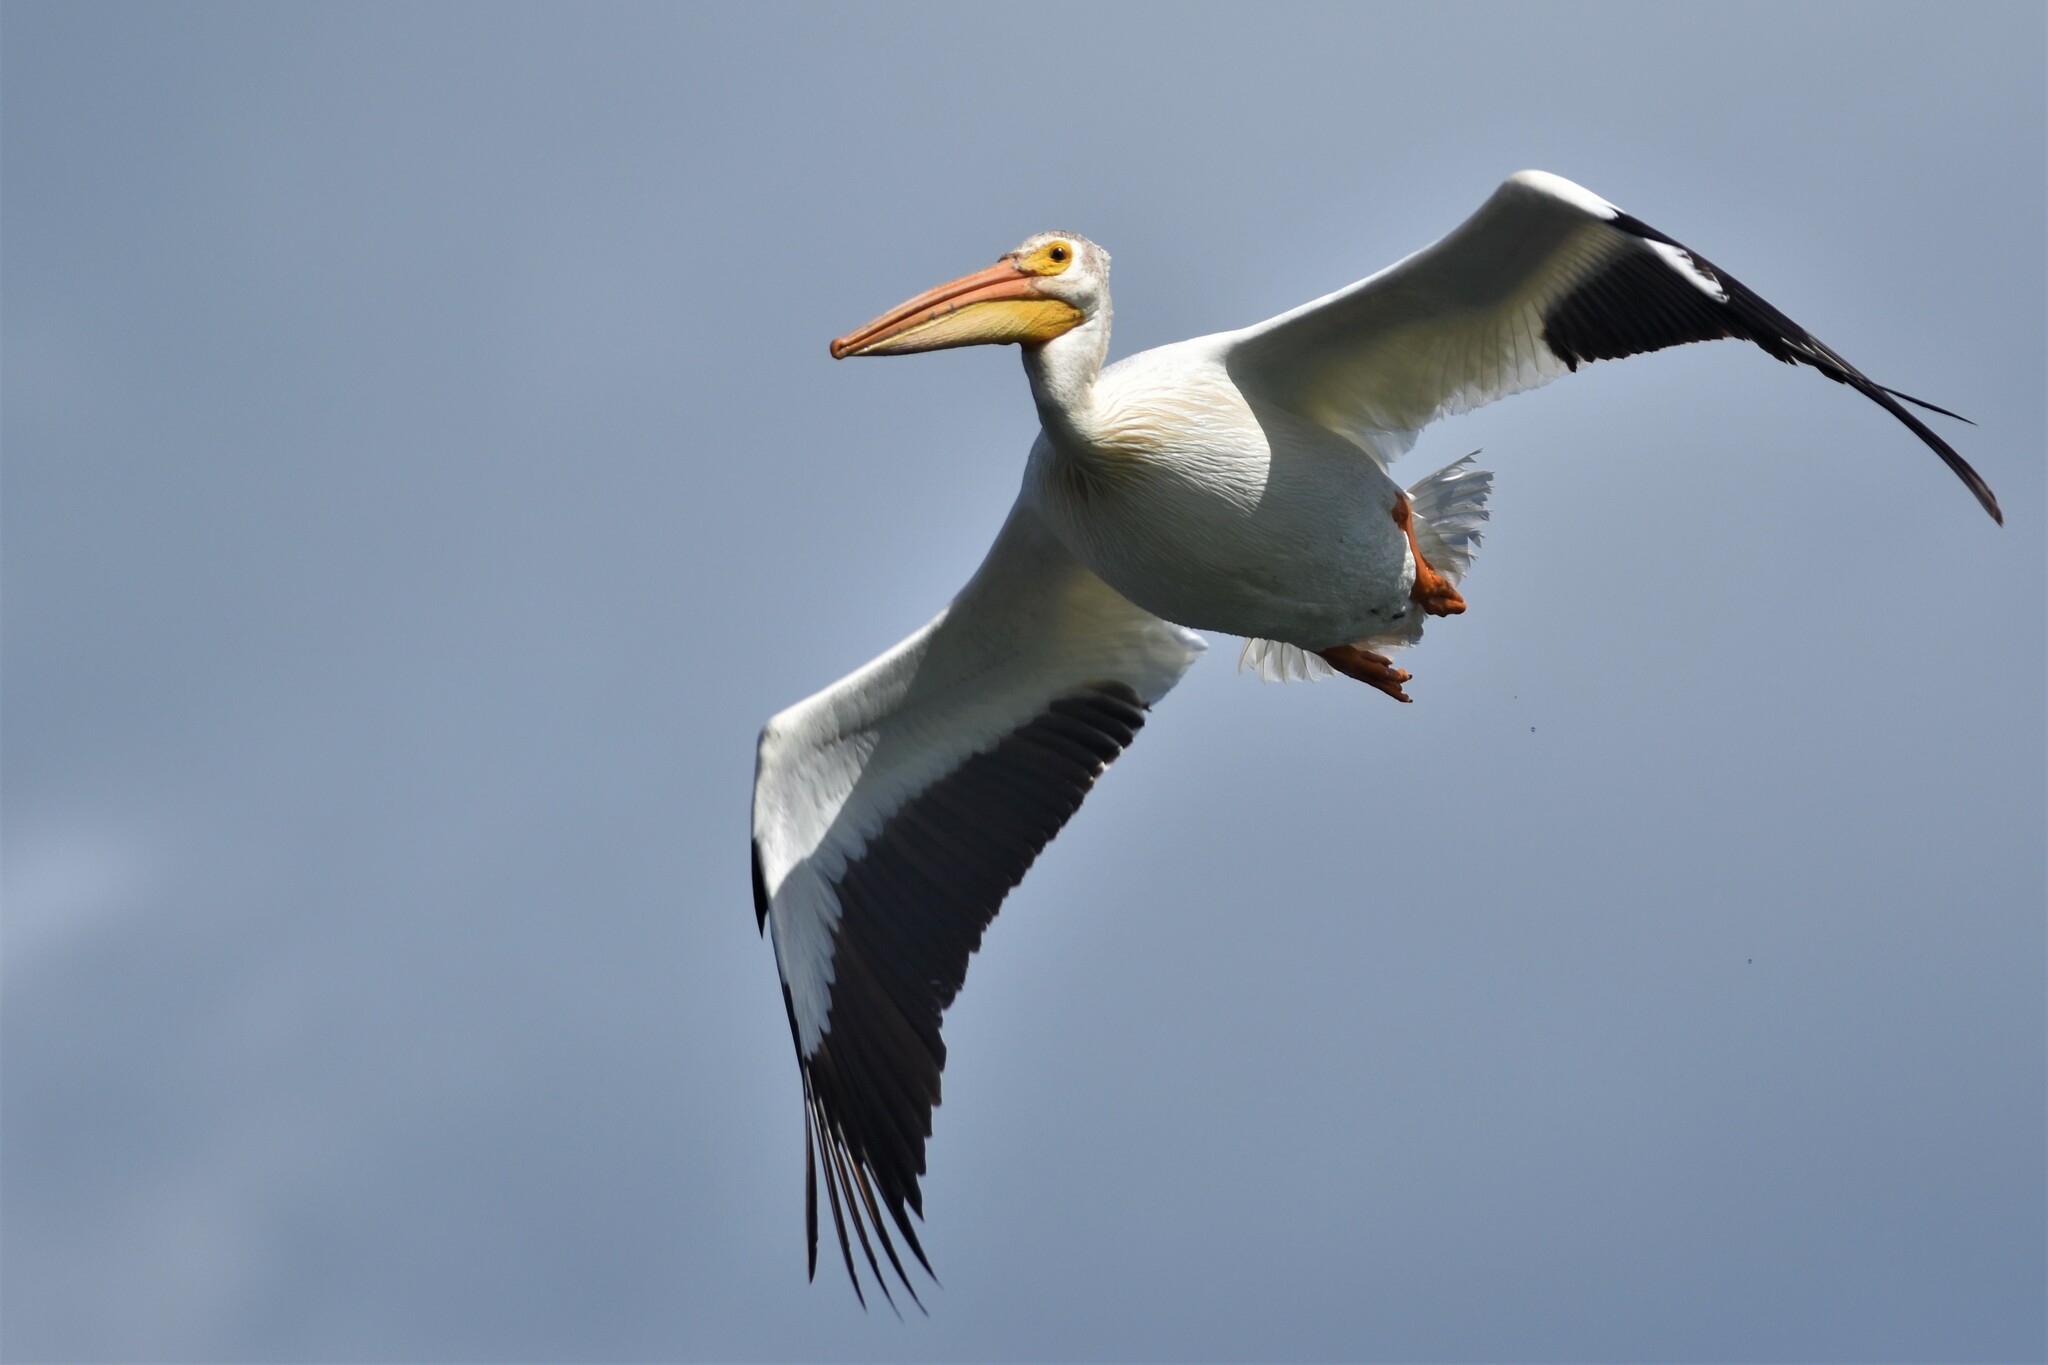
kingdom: Animalia
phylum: Chordata
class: Aves
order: Pelecaniformes
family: Pelecanidae
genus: Pelecanus
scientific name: Pelecanus erythrorhynchos
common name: American white pelican
